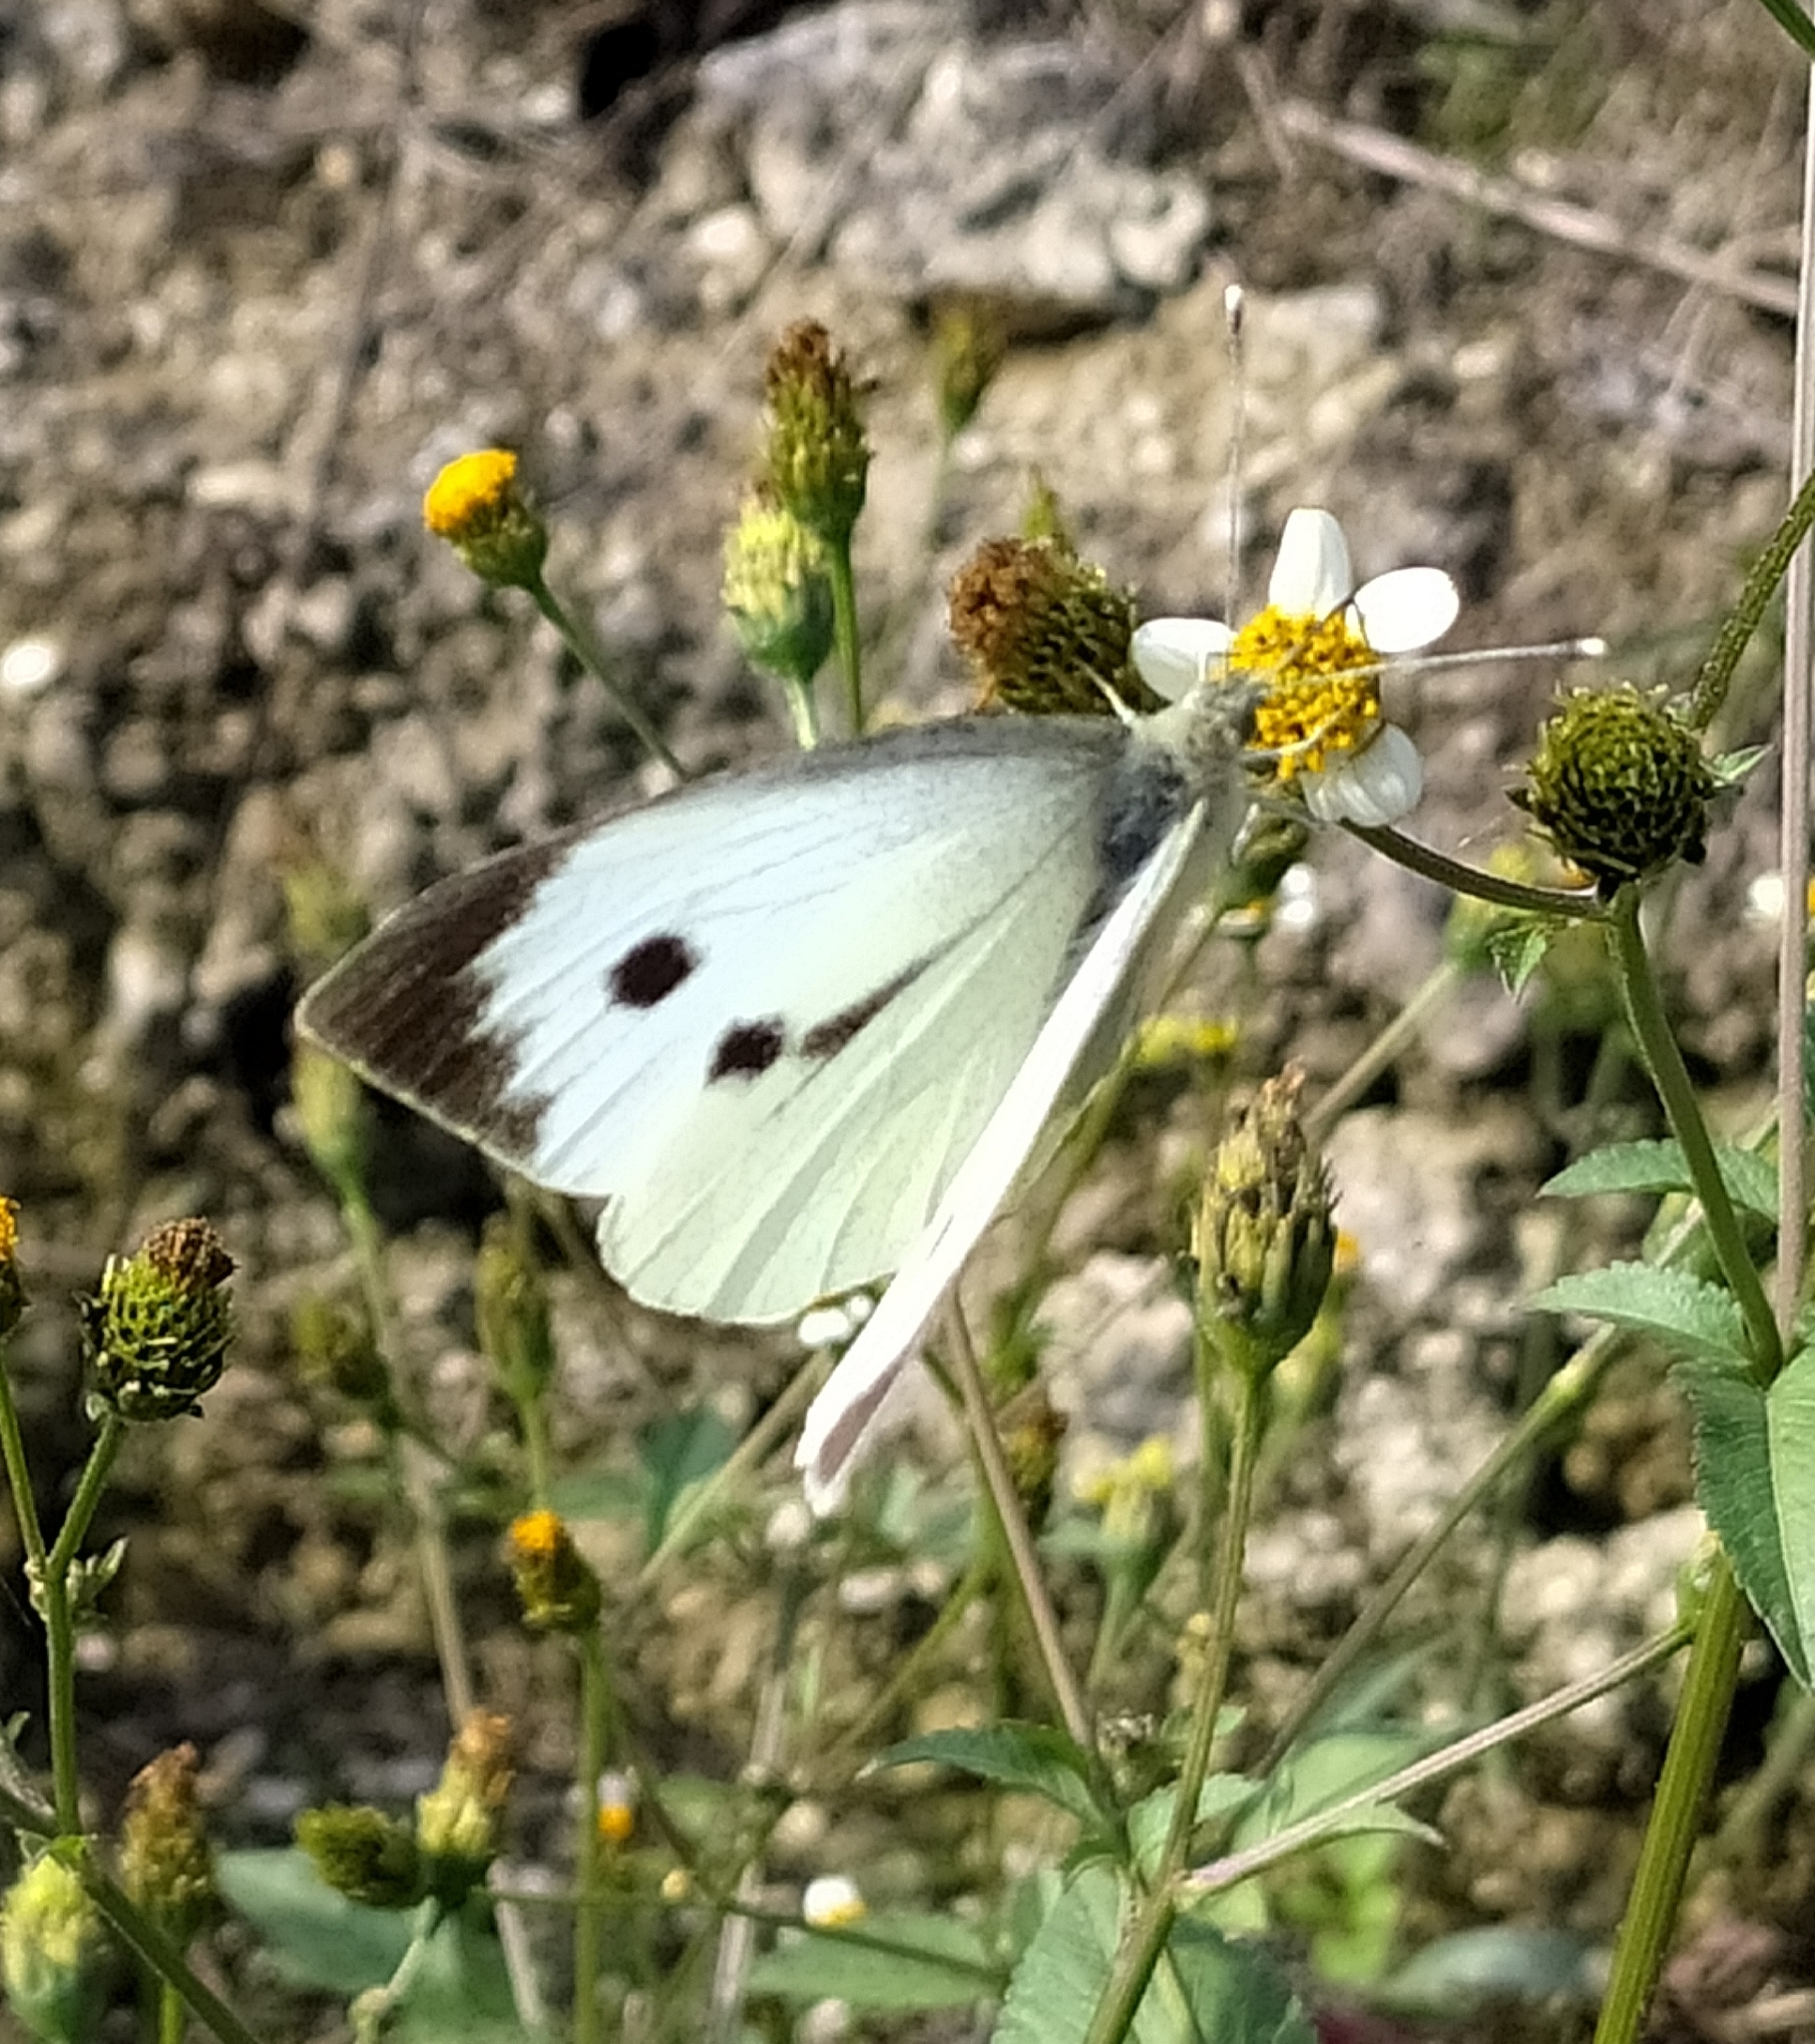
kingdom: Animalia
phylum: Arthropoda
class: Insecta
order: Lepidoptera
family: Pieridae
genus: Pieris
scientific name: Pieris brassicae
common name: Large white
